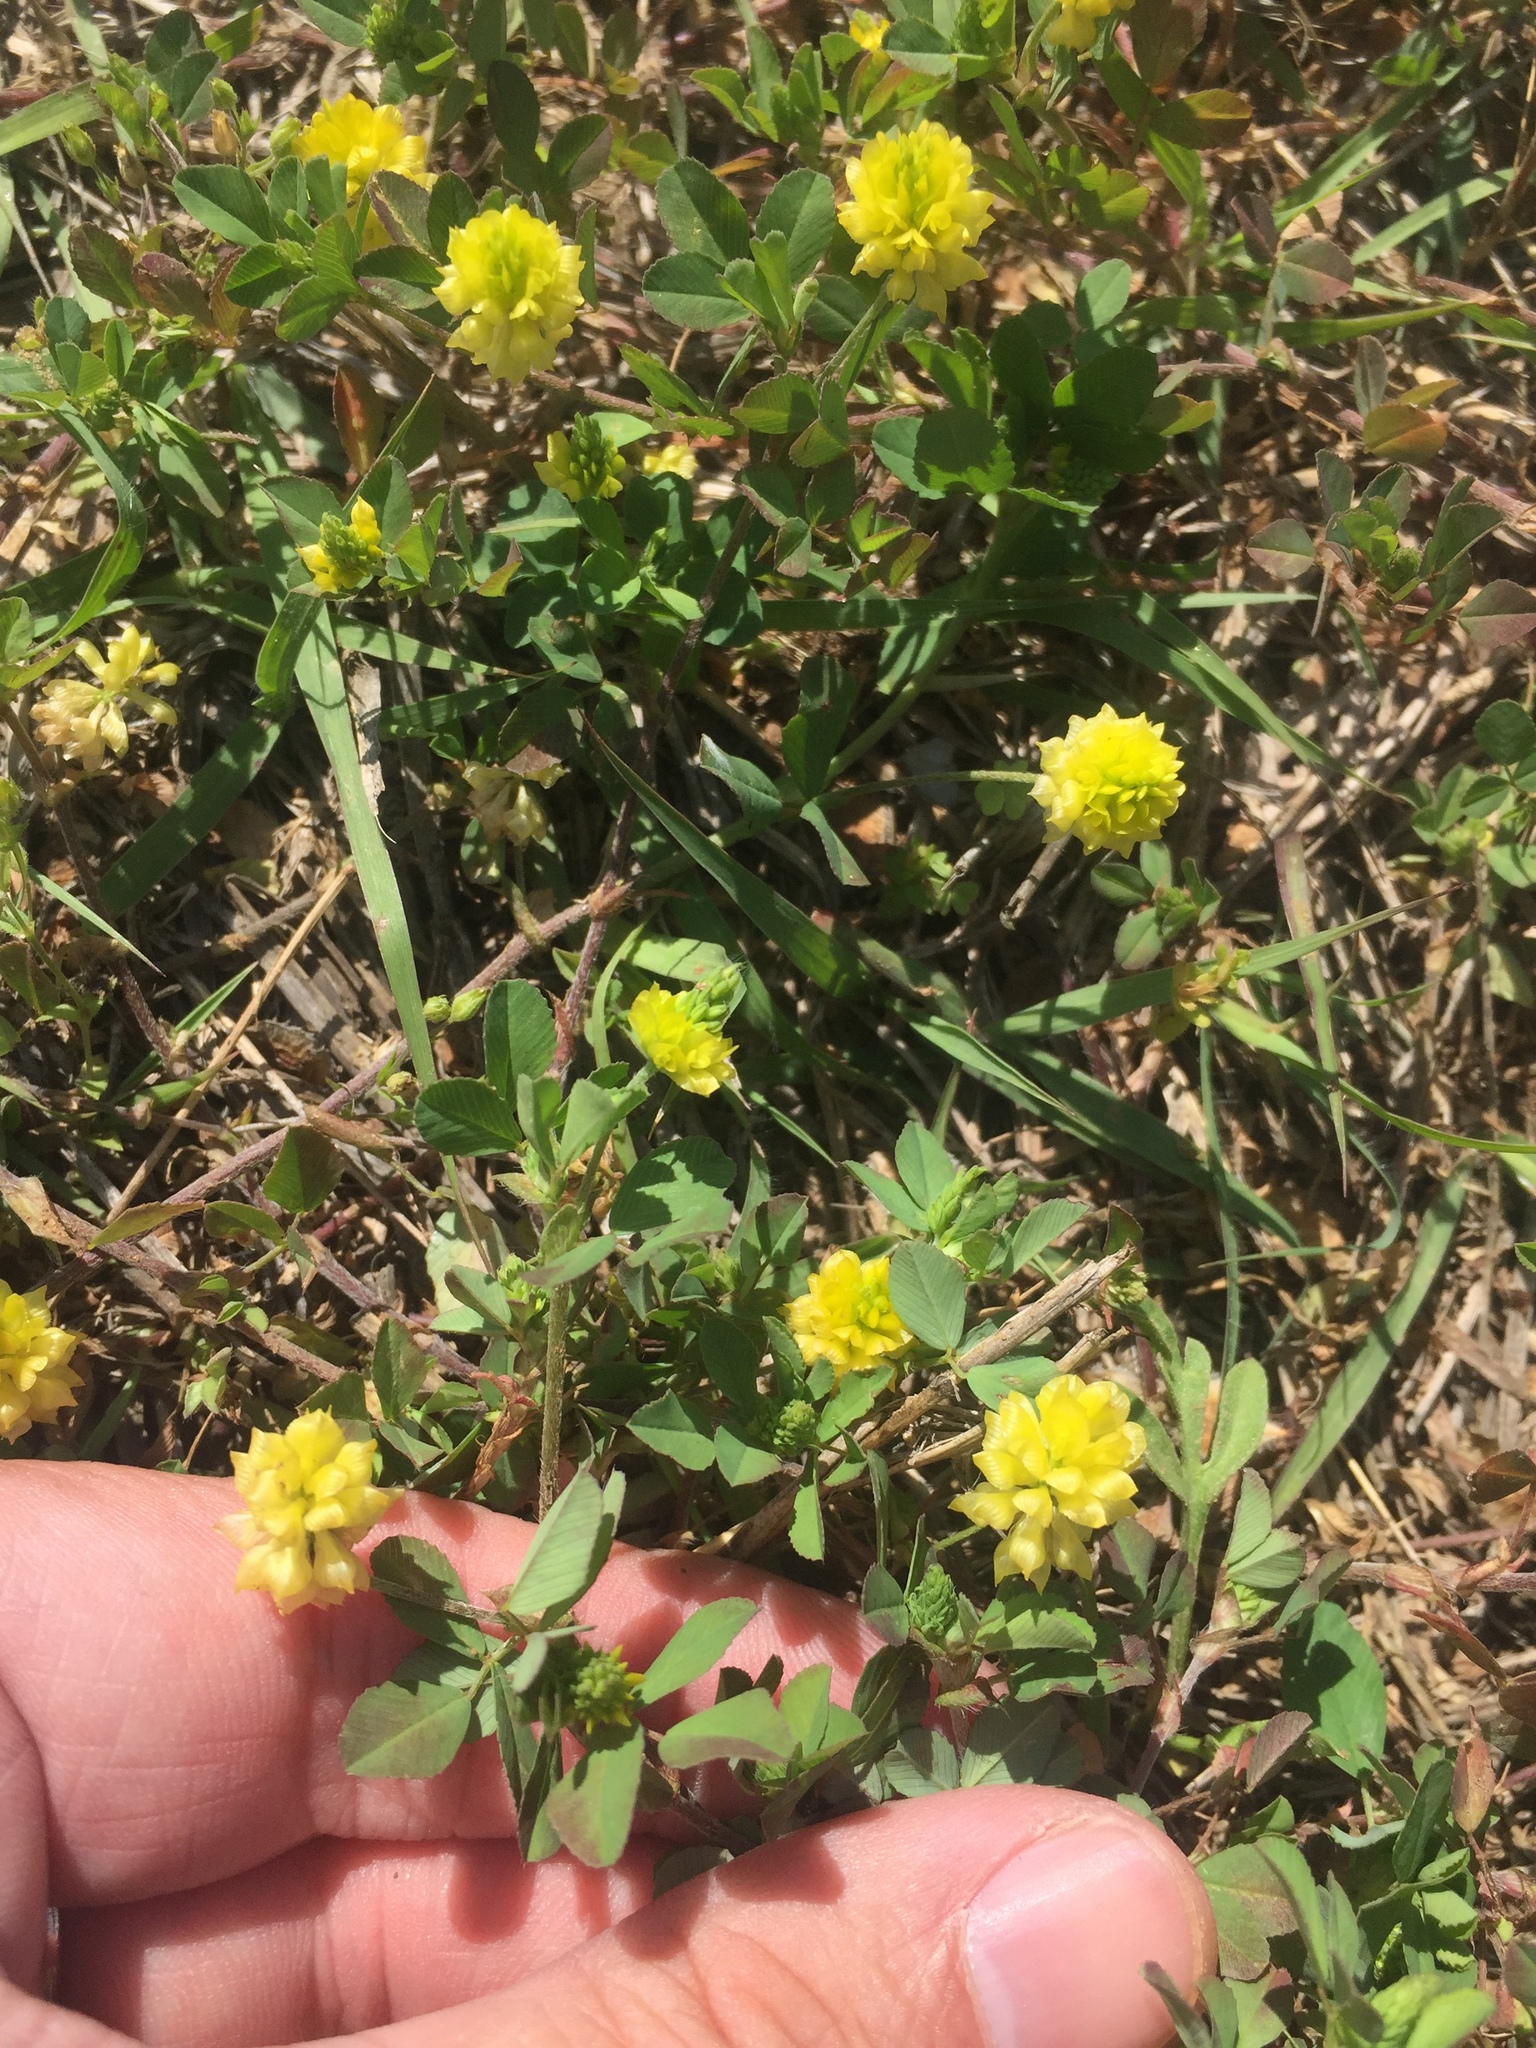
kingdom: Plantae
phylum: Tracheophyta
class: Magnoliopsida
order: Fabales
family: Fabaceae
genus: Trifolium
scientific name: Trifolium campestre
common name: Field clover
